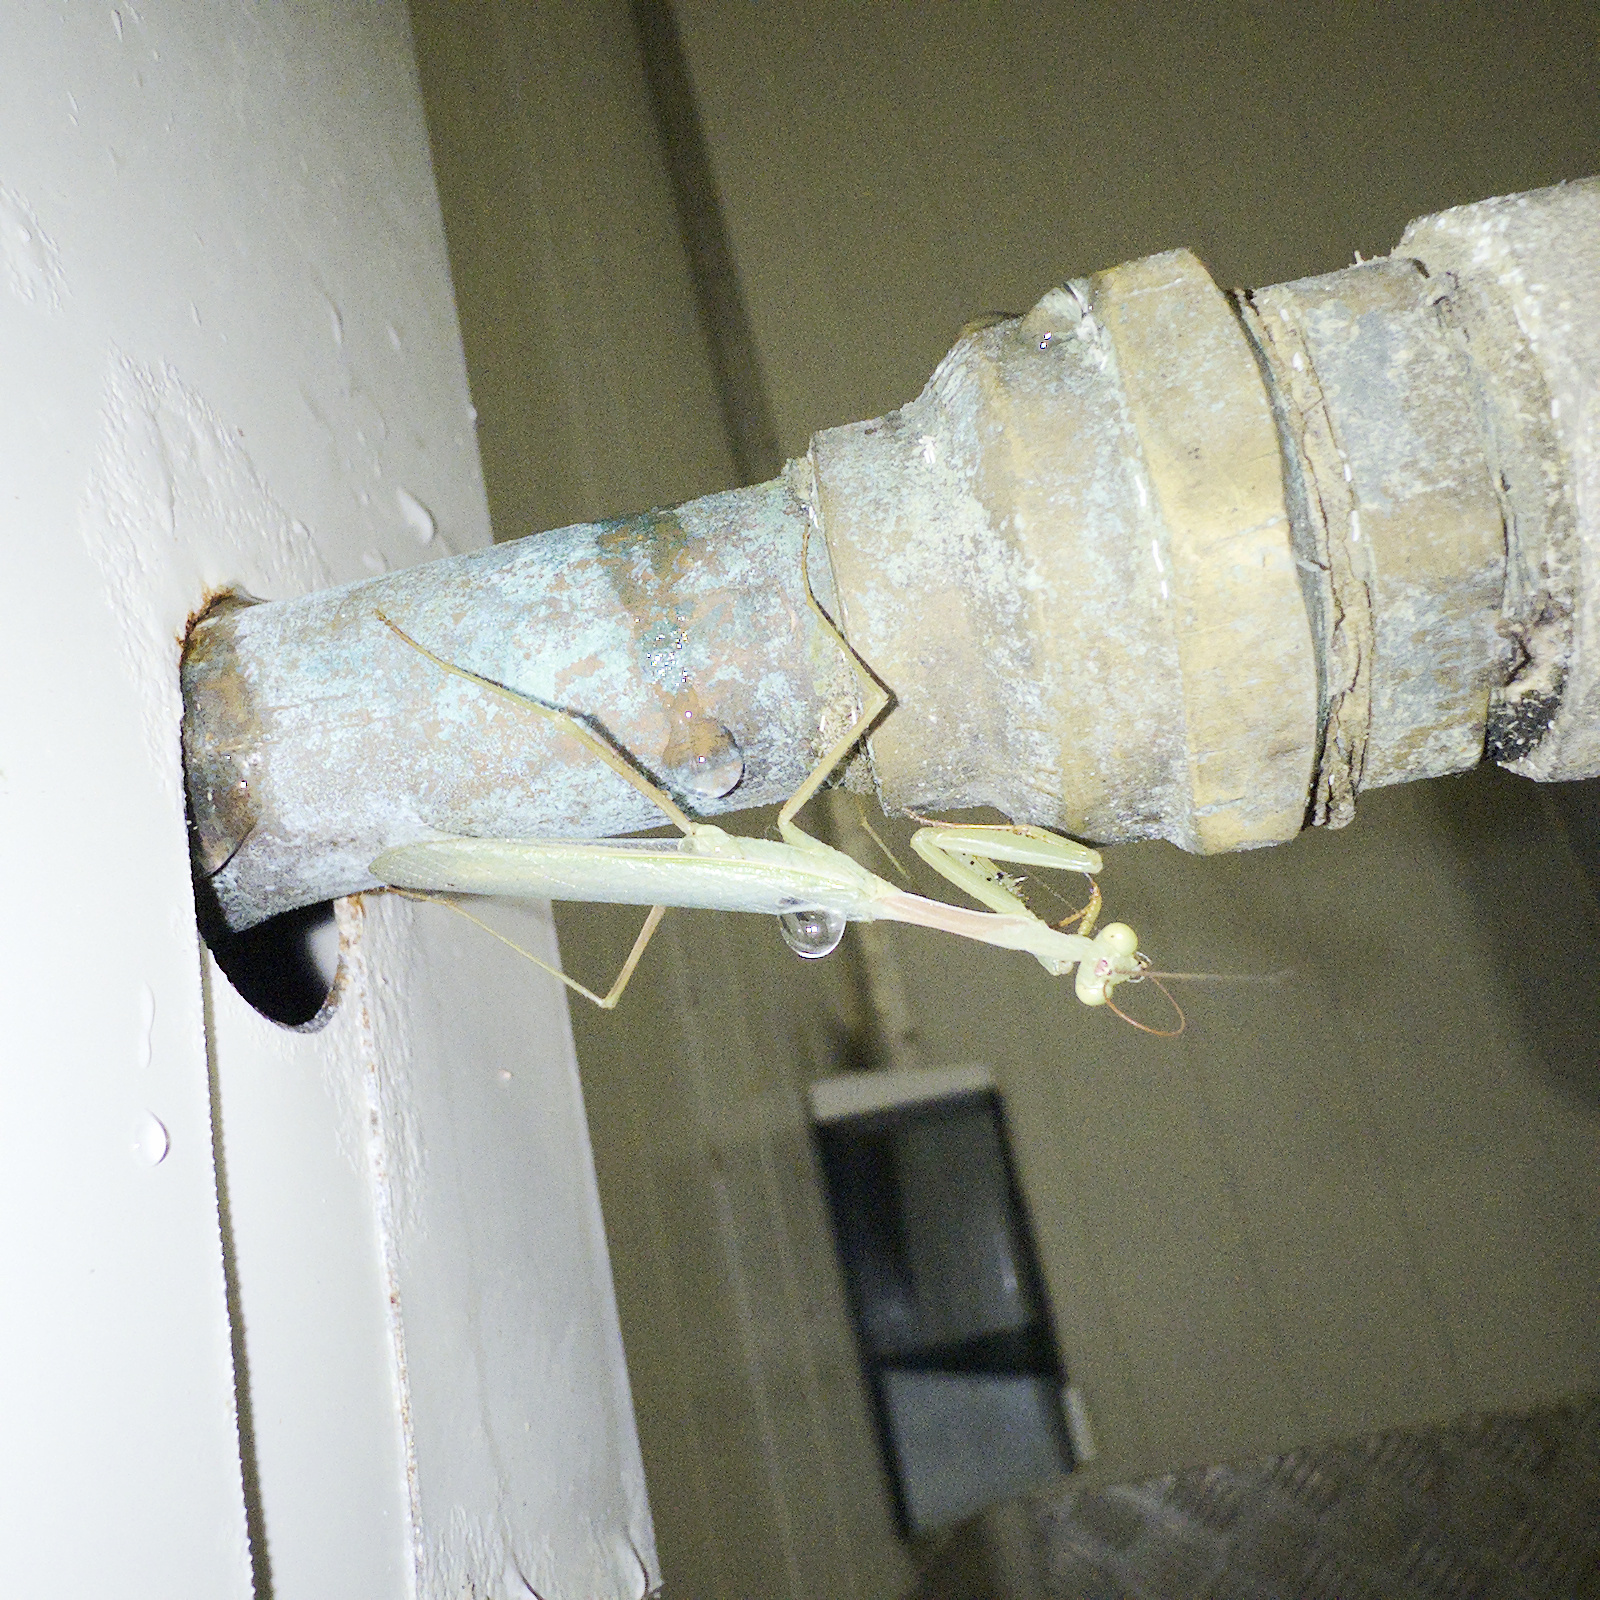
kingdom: Animalia
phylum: Arthropoda
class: Insecta
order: Mantodea
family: Miomantidae
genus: Miomantis
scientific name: Miomantis caffra
